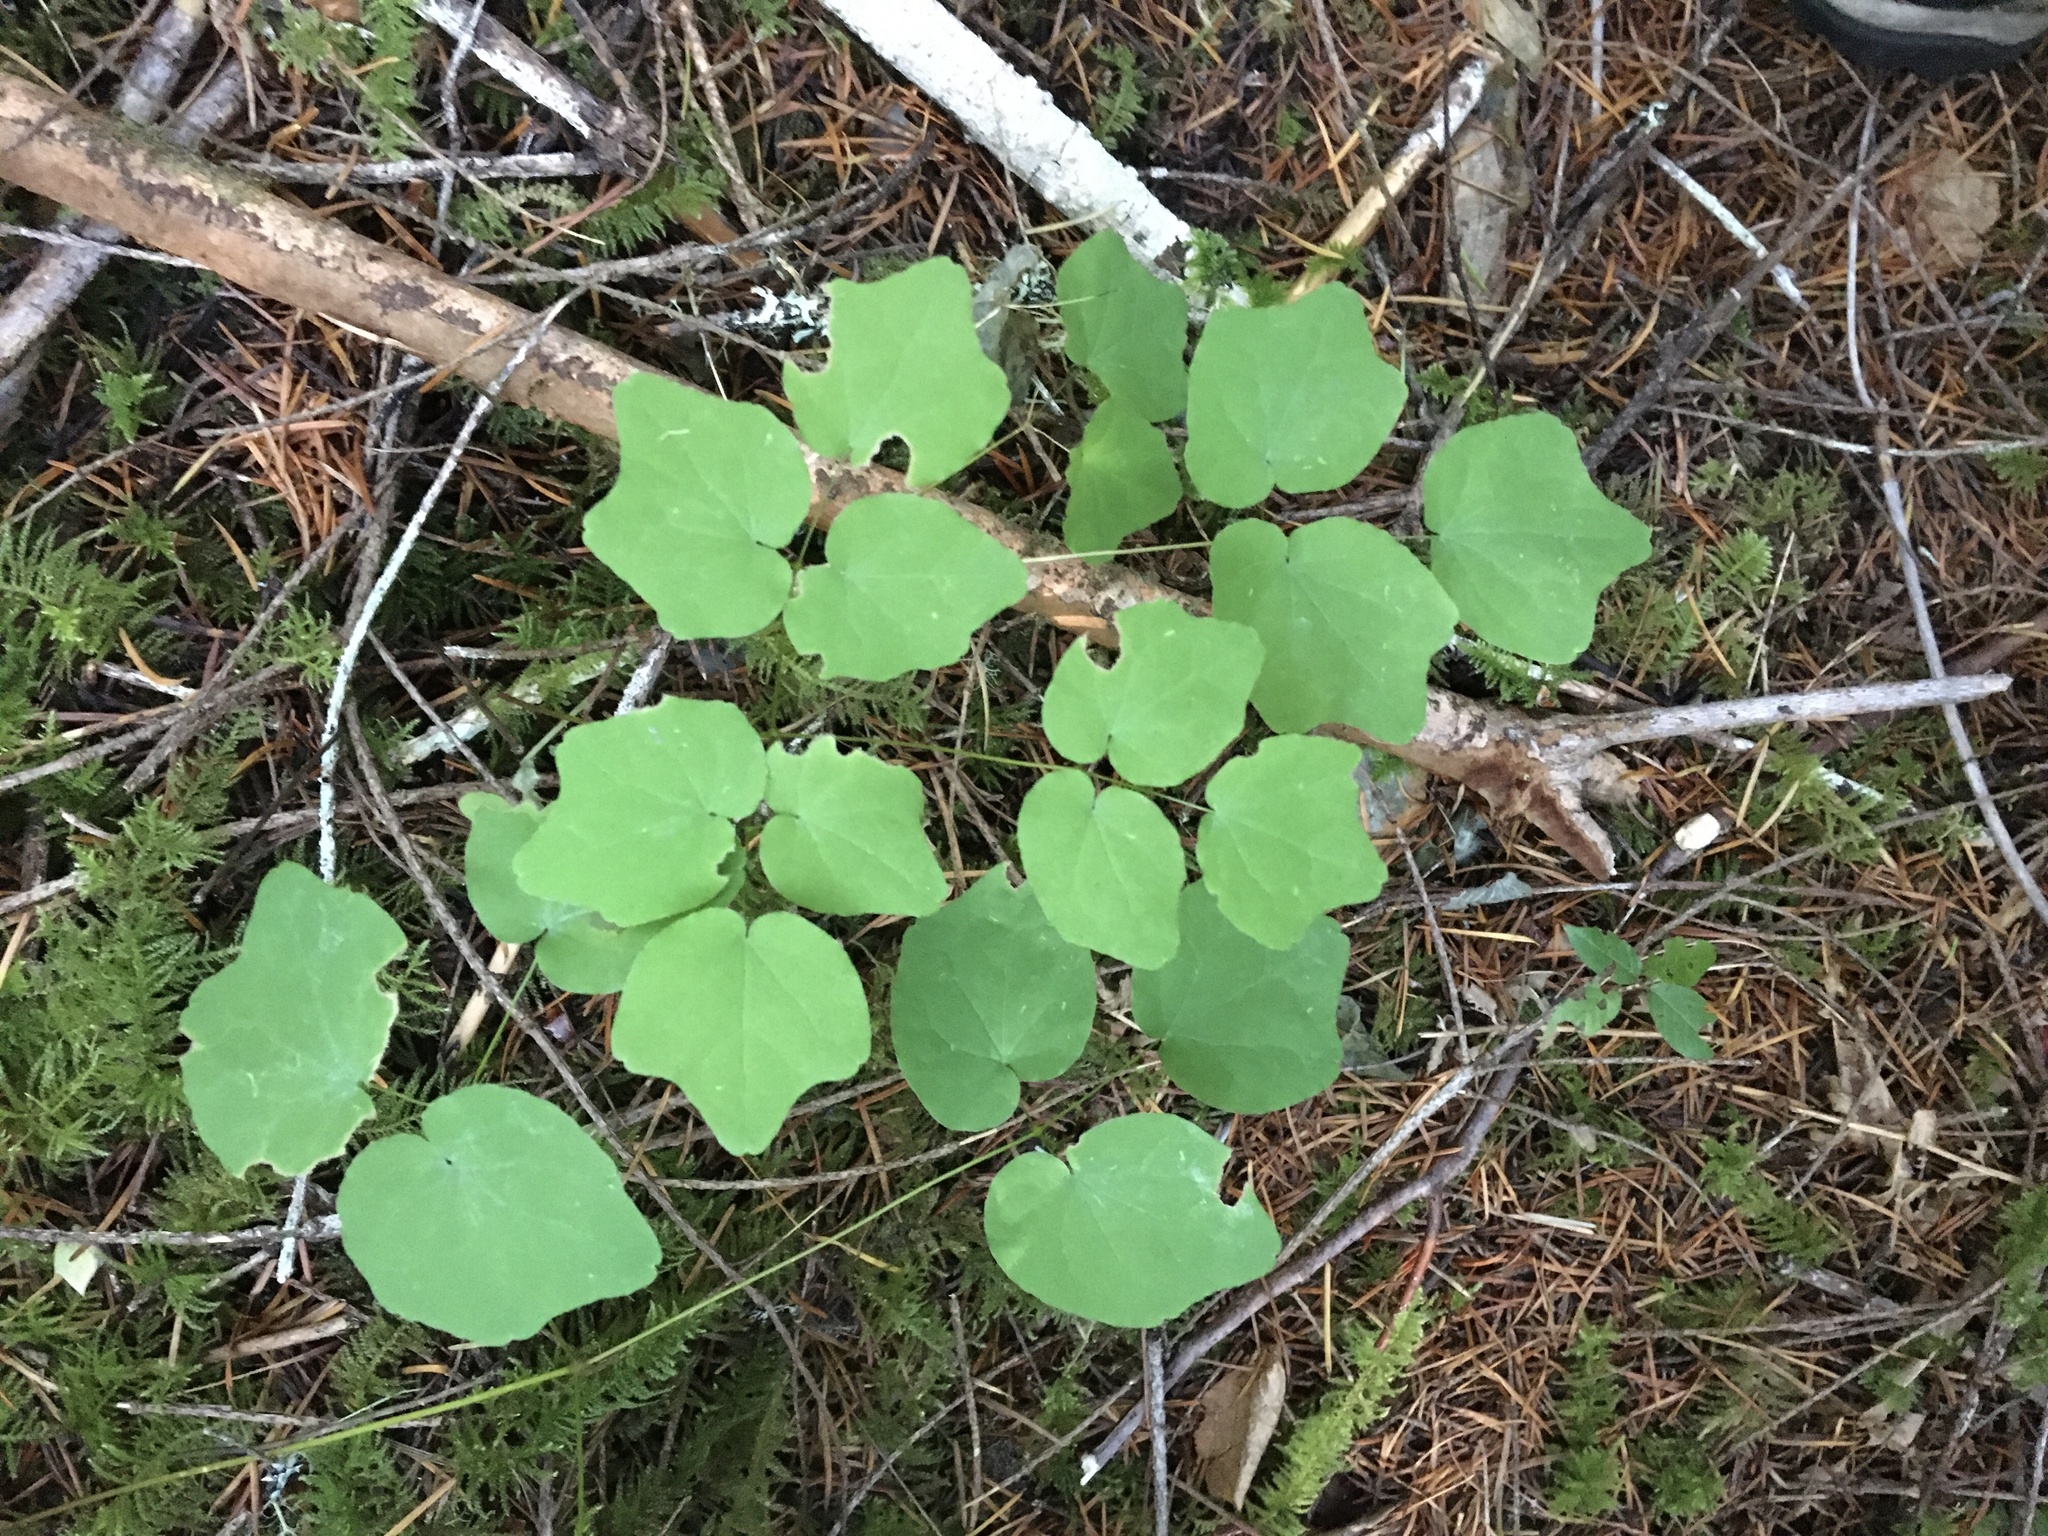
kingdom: Plantae
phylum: Tracheophyta
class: Magnoliopsida
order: Ranunculales
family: Berberidaceae
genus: Vancouveria
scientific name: Vancouveria hexandra
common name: Northern inside-out-flower
